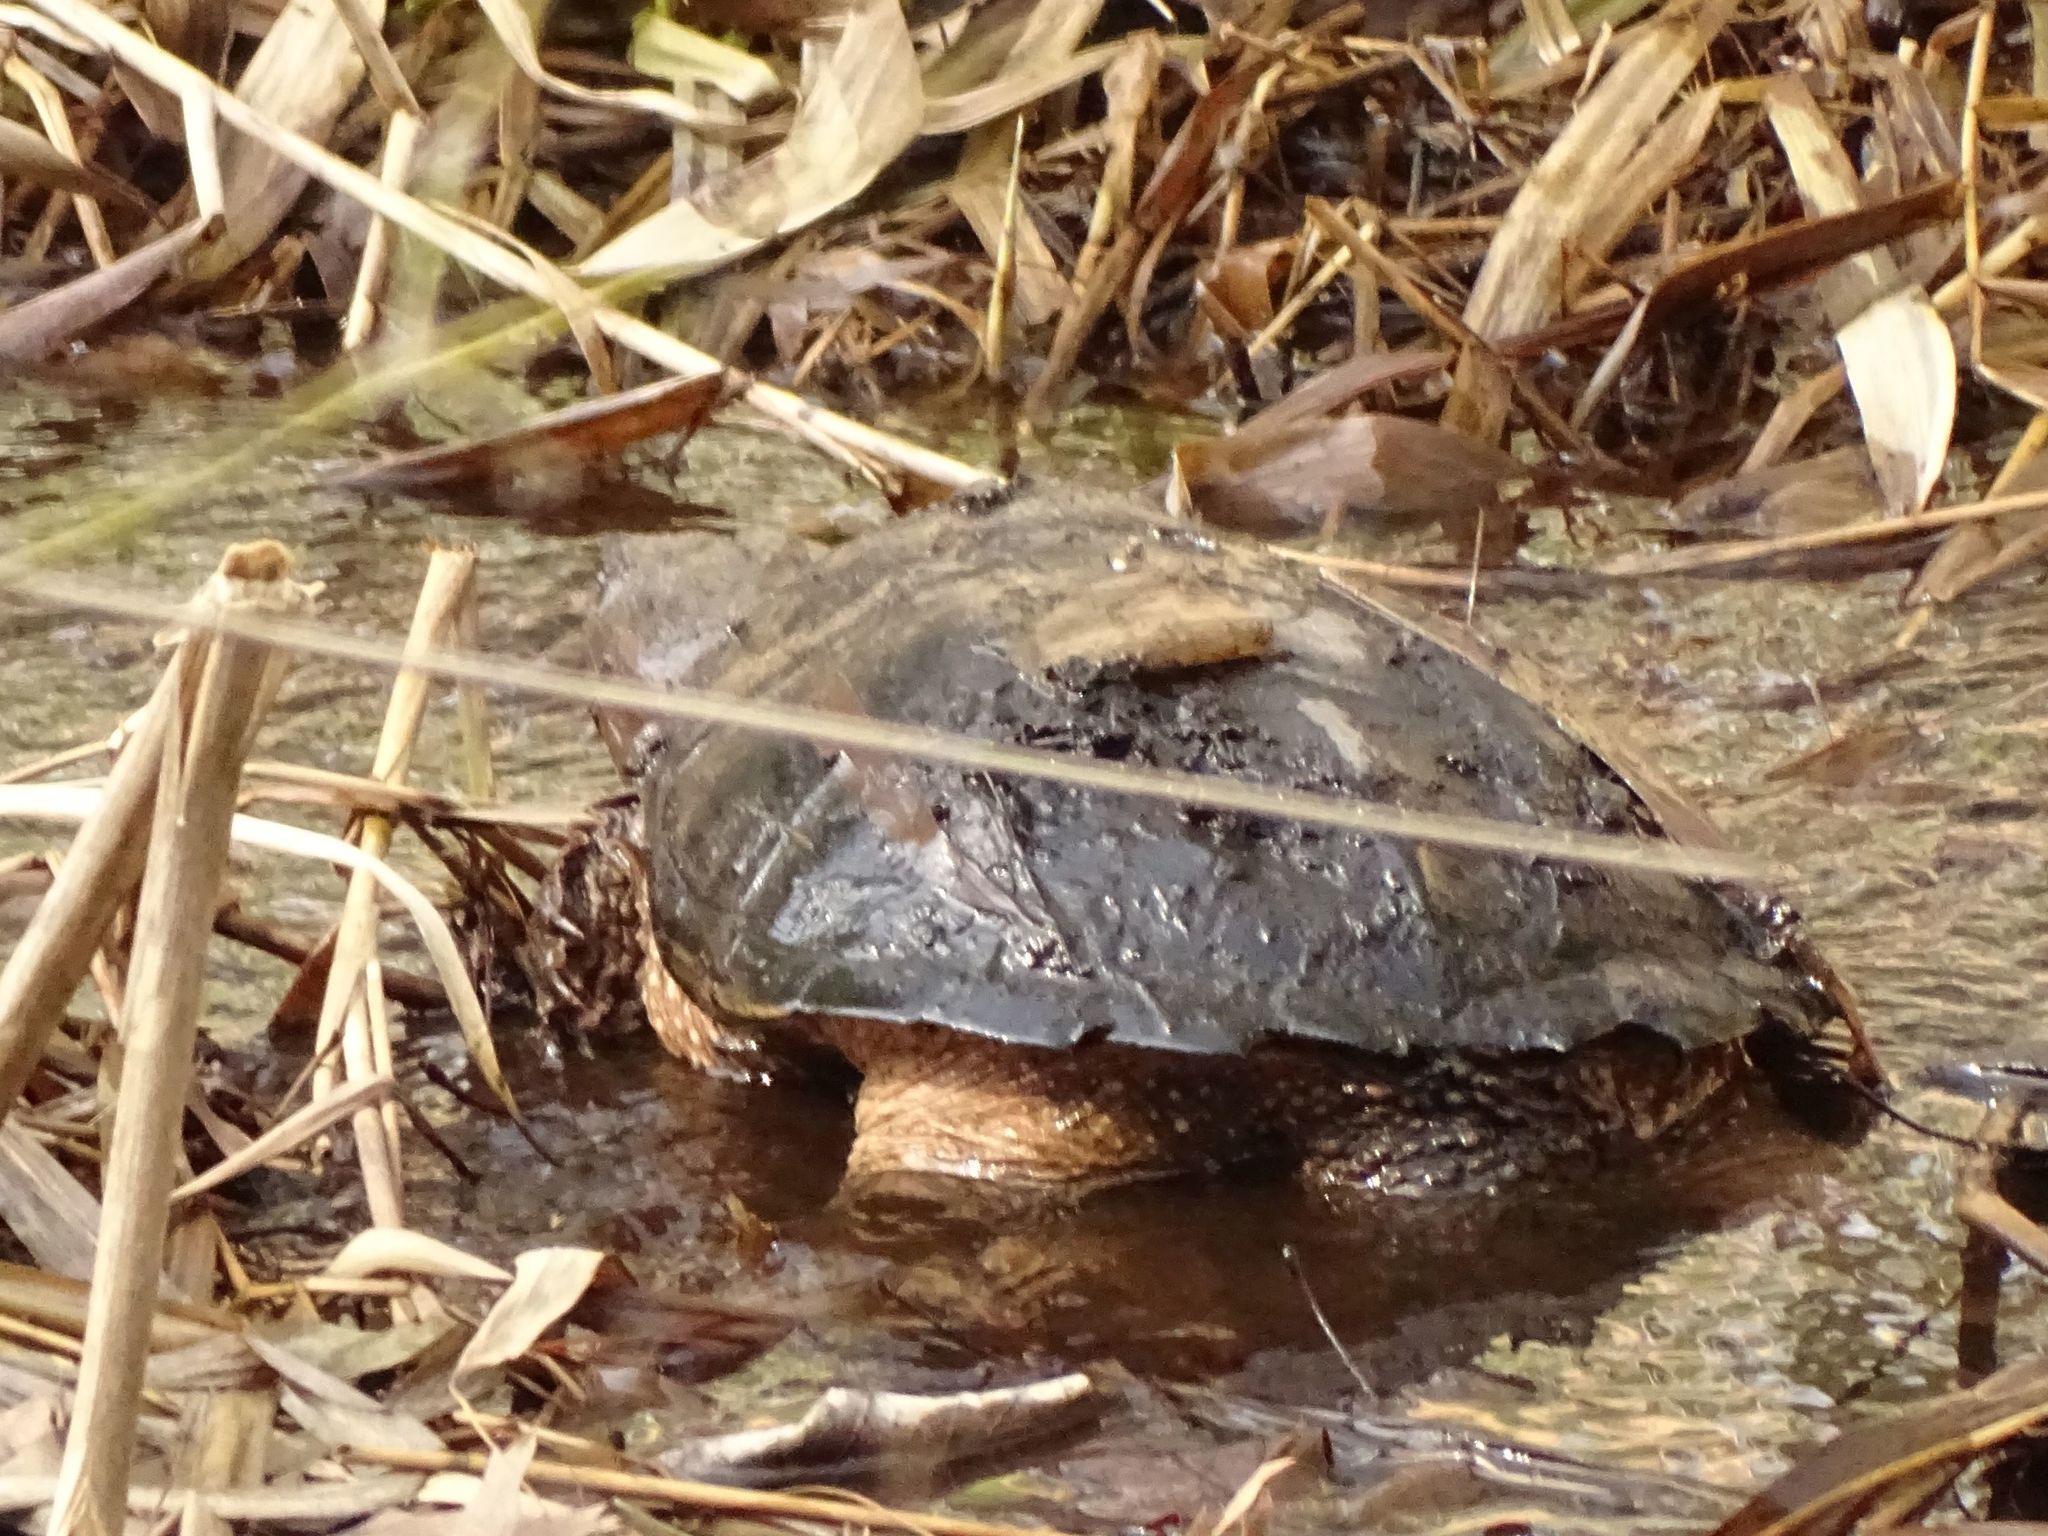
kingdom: Animalia
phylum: Chordata
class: Testudines
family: Chelydridae
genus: Chelydra
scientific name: Chelydra serpentina
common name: Common snapping turtle
